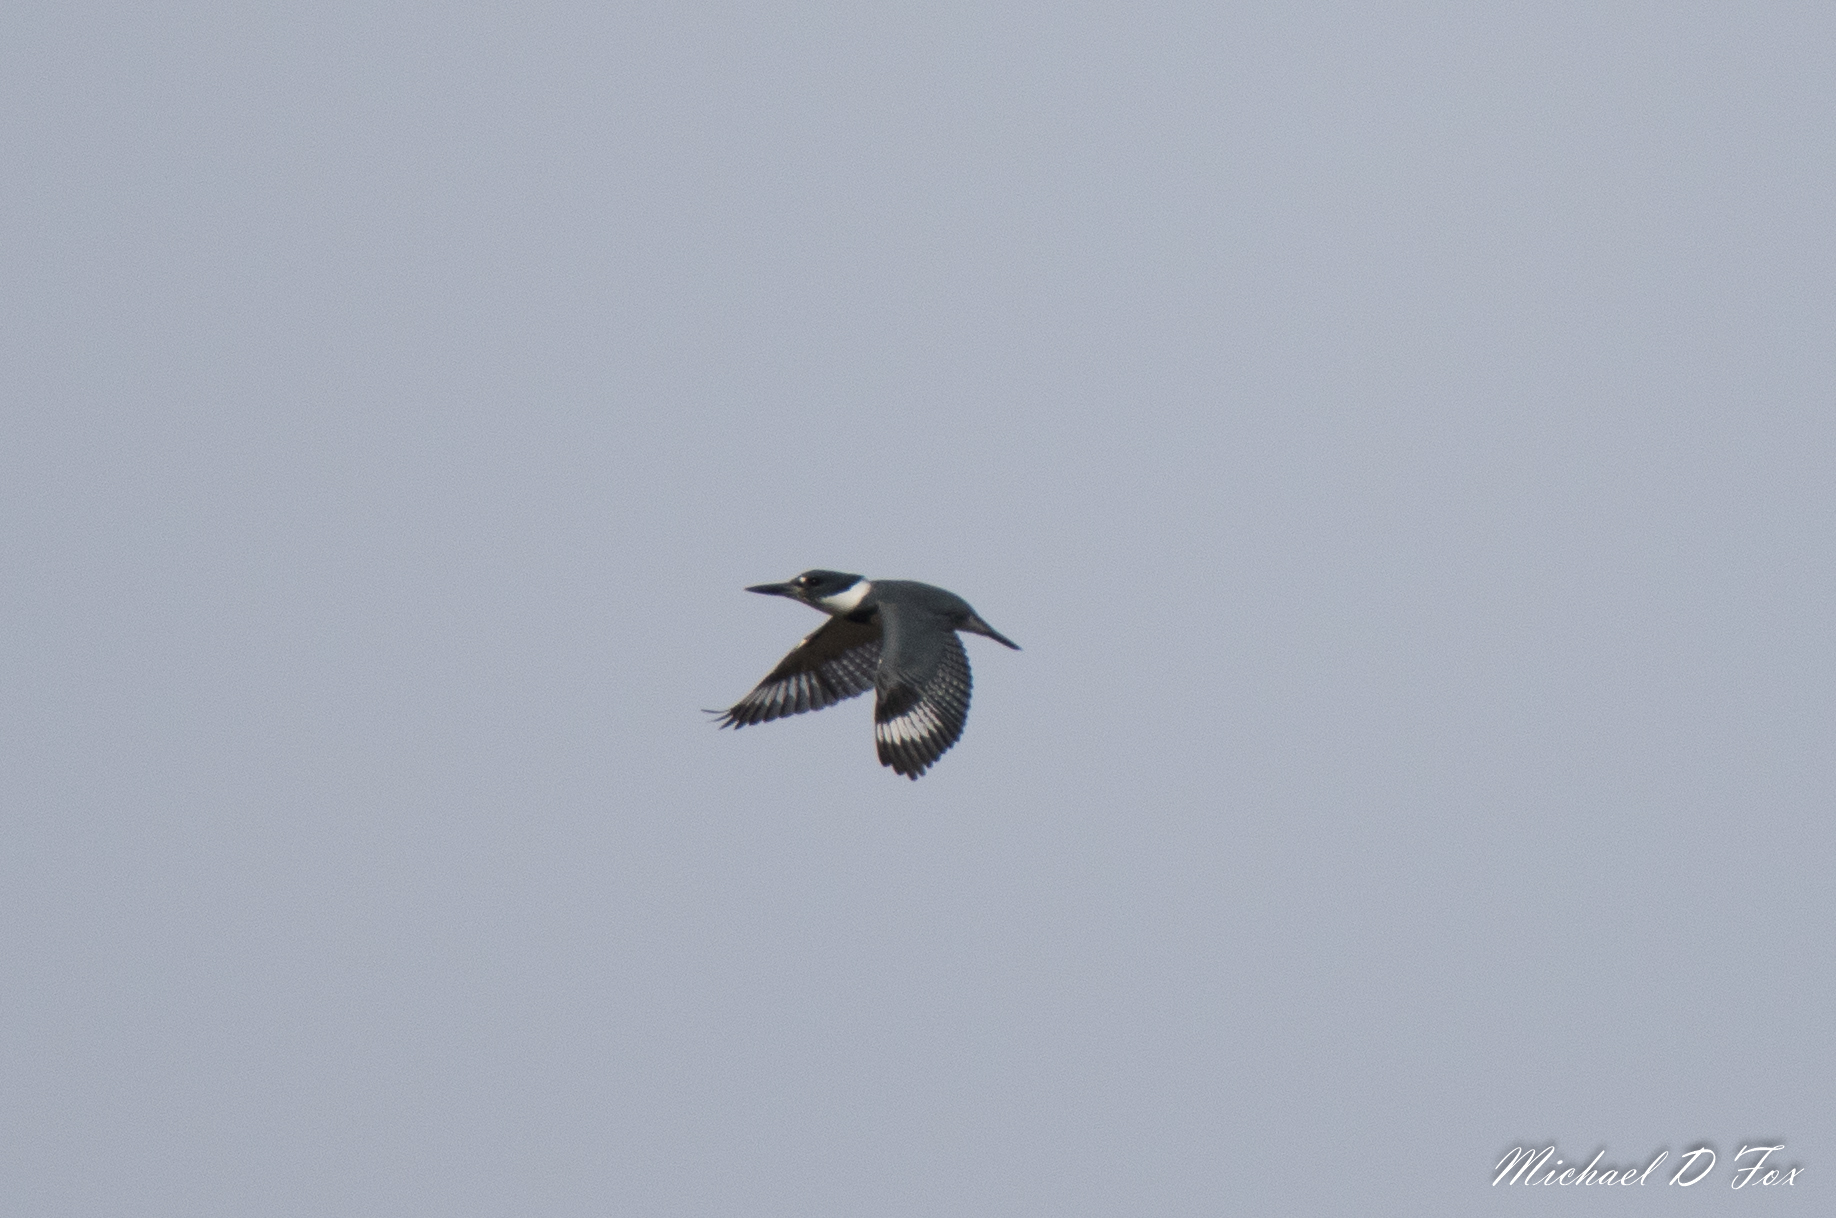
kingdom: Animalia
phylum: Chordata
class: Aves
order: Coraciiformes
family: Alcedinidae
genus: Megaceryle
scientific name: Megaceryle alcyon
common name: Belted kingfisher
